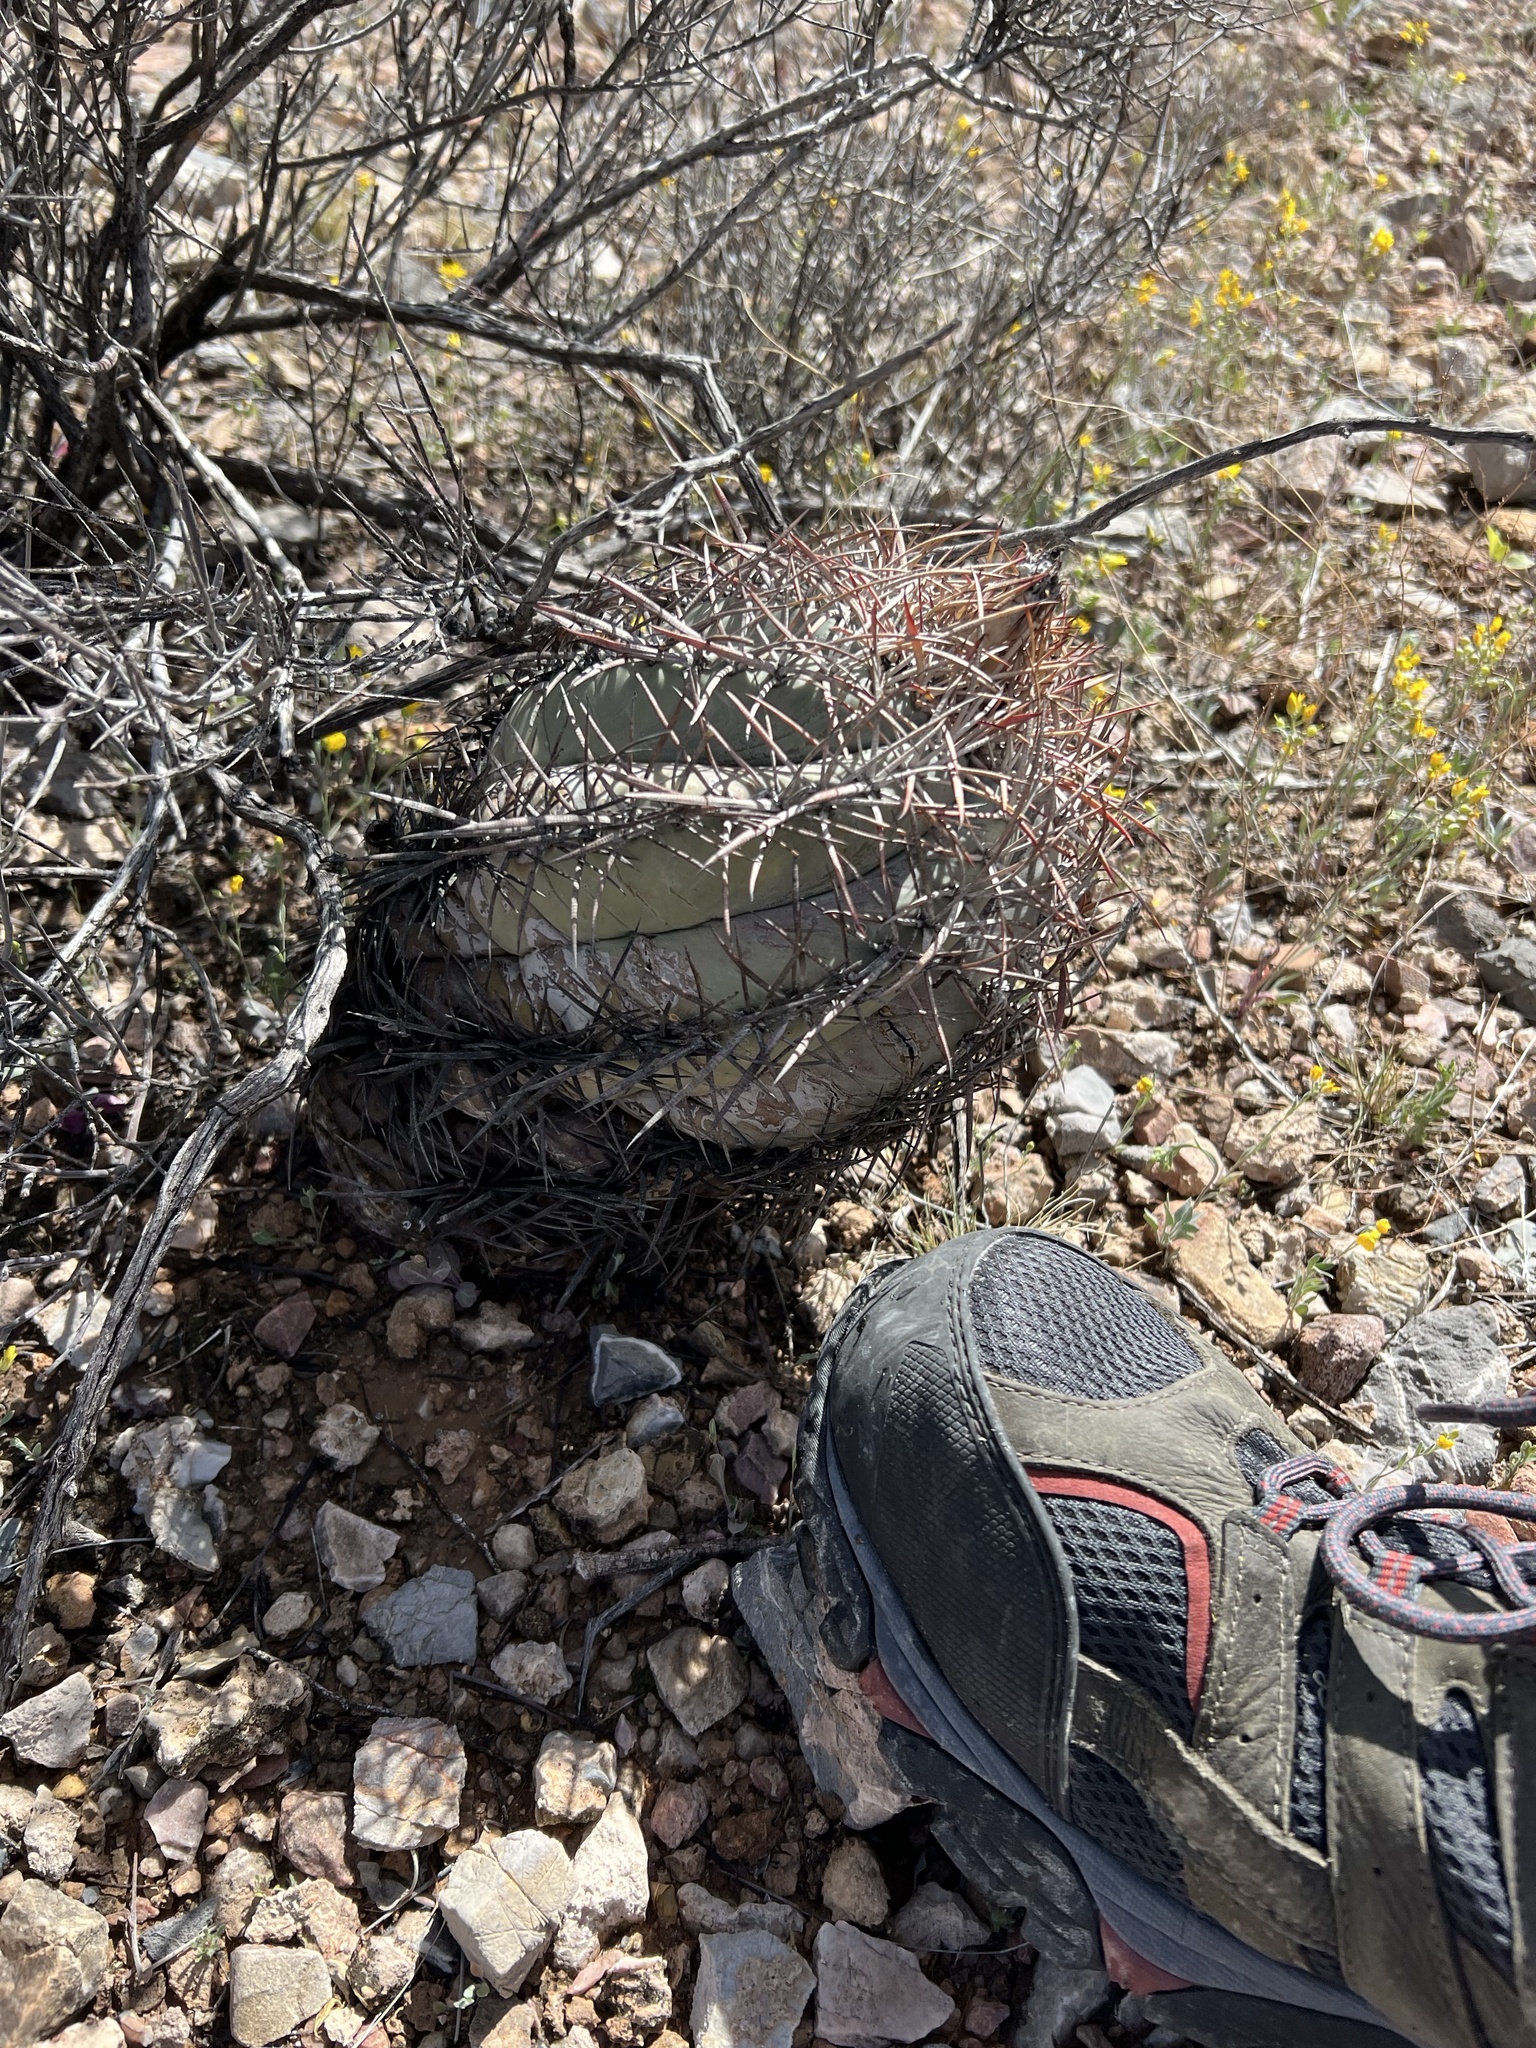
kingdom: Plantae
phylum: Tracheophyta
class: Magnoliopsida
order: Caryophyllales
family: Cactaceae
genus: Echinocactus
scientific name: Echinocactus horizonthalonius
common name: Devilshead
